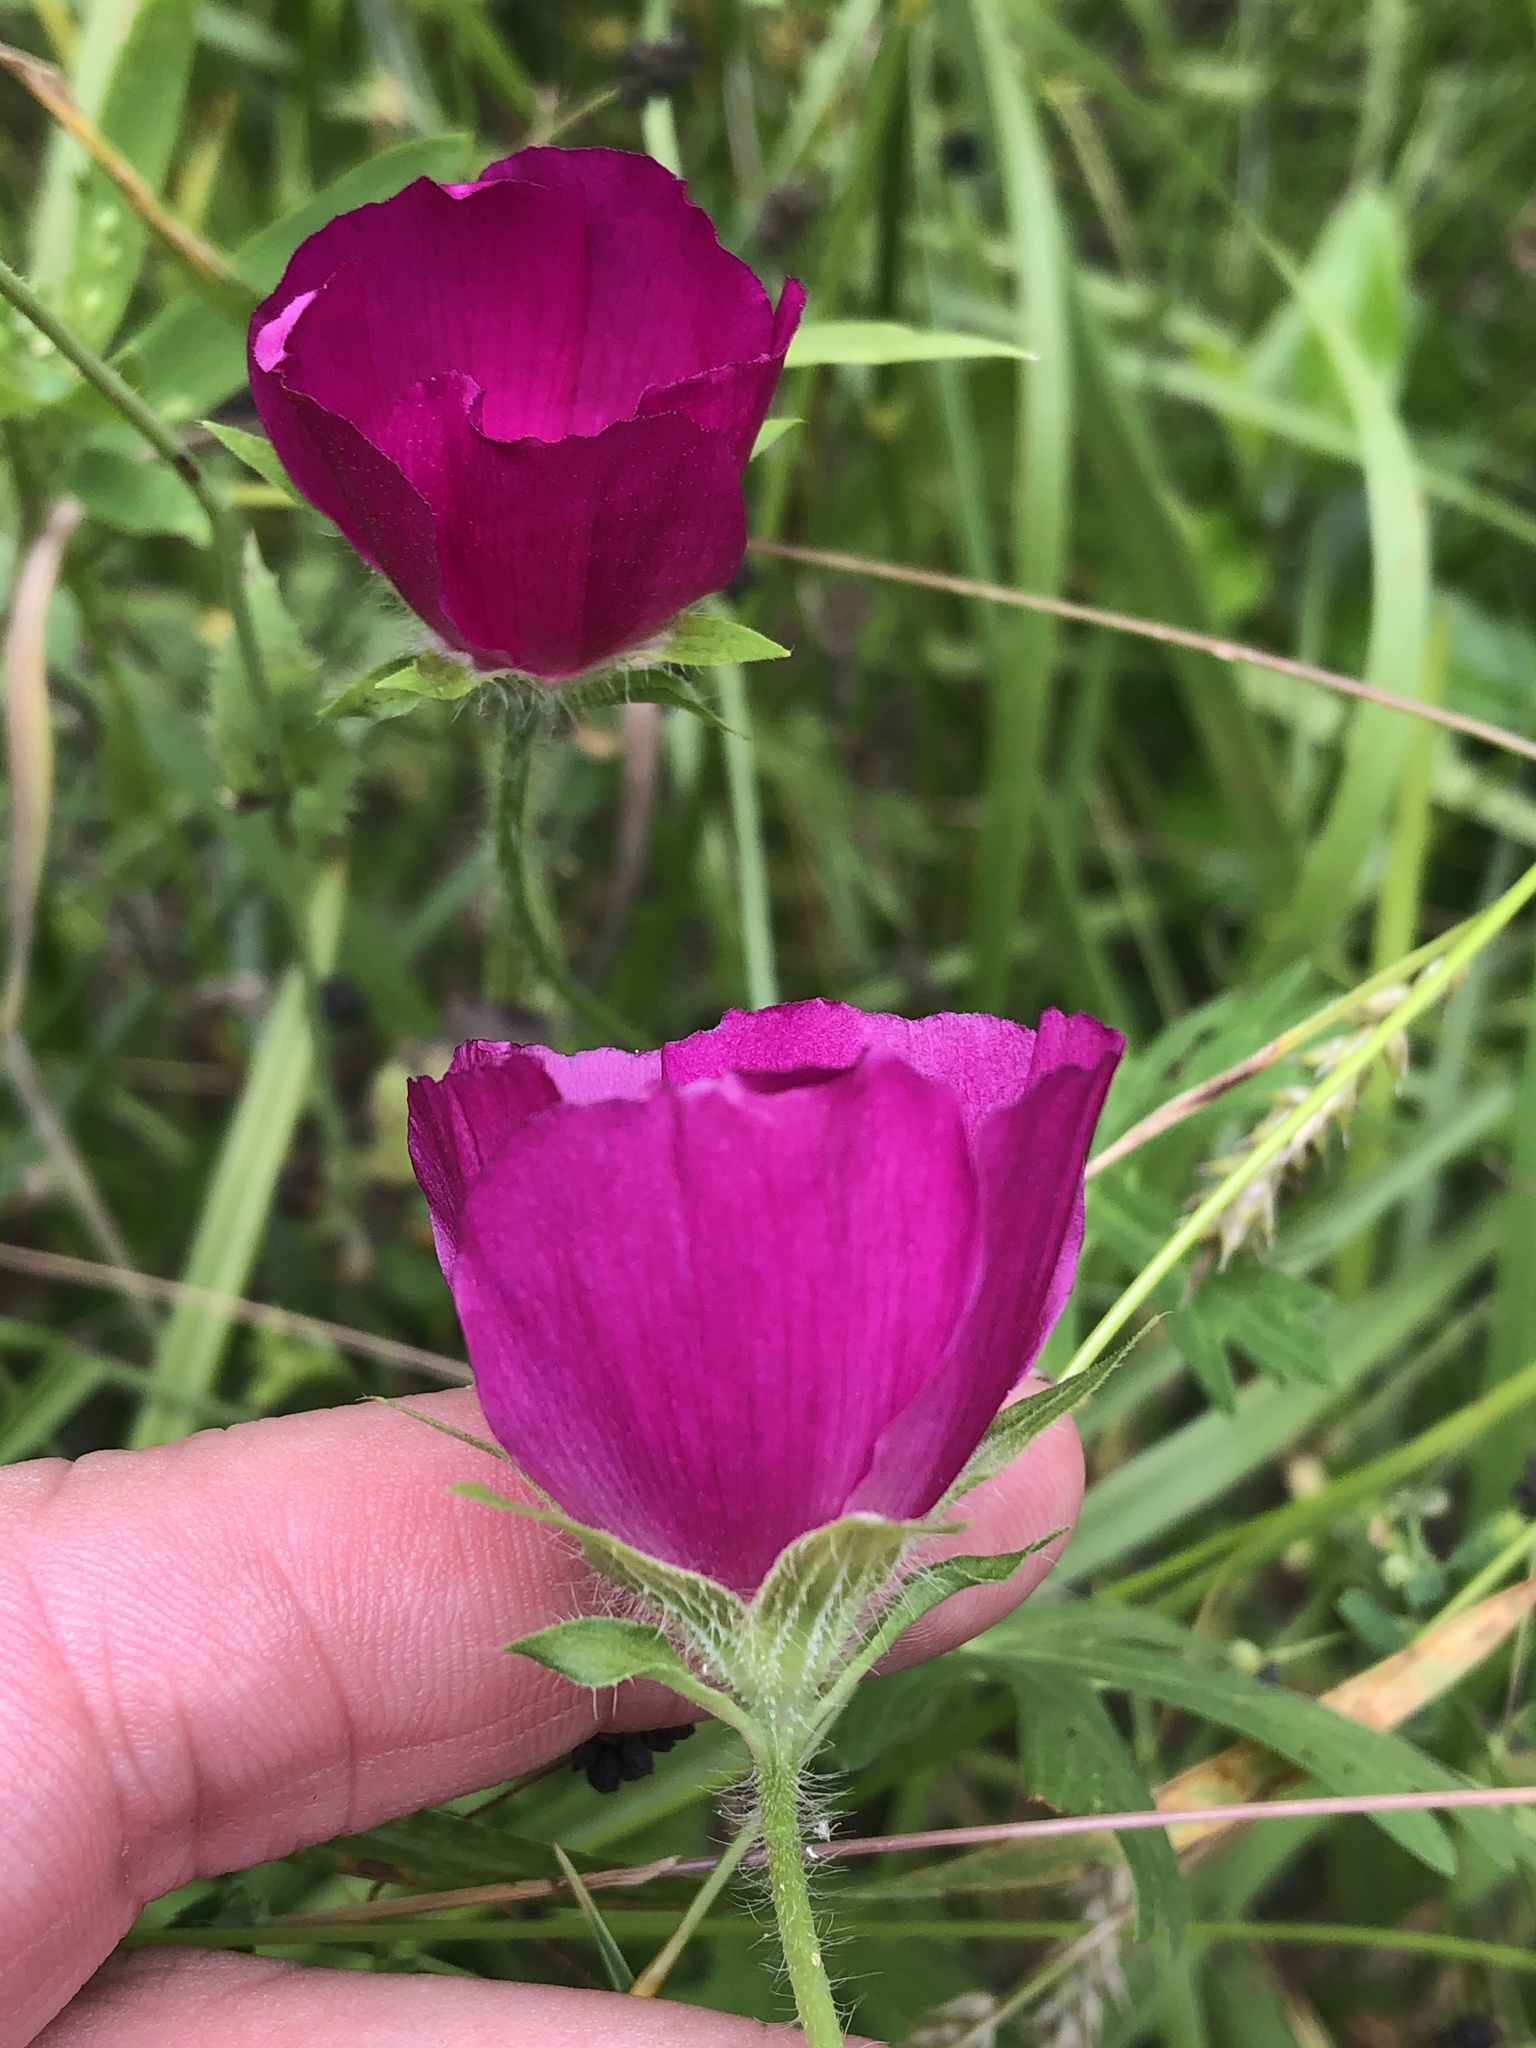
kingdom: Plantae
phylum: Tracheophyta
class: Magnoliopsida
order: Malvales
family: Malvaceae
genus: Callirhoe
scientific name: Callirhoe involucrata
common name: Purple poppy-mallow
